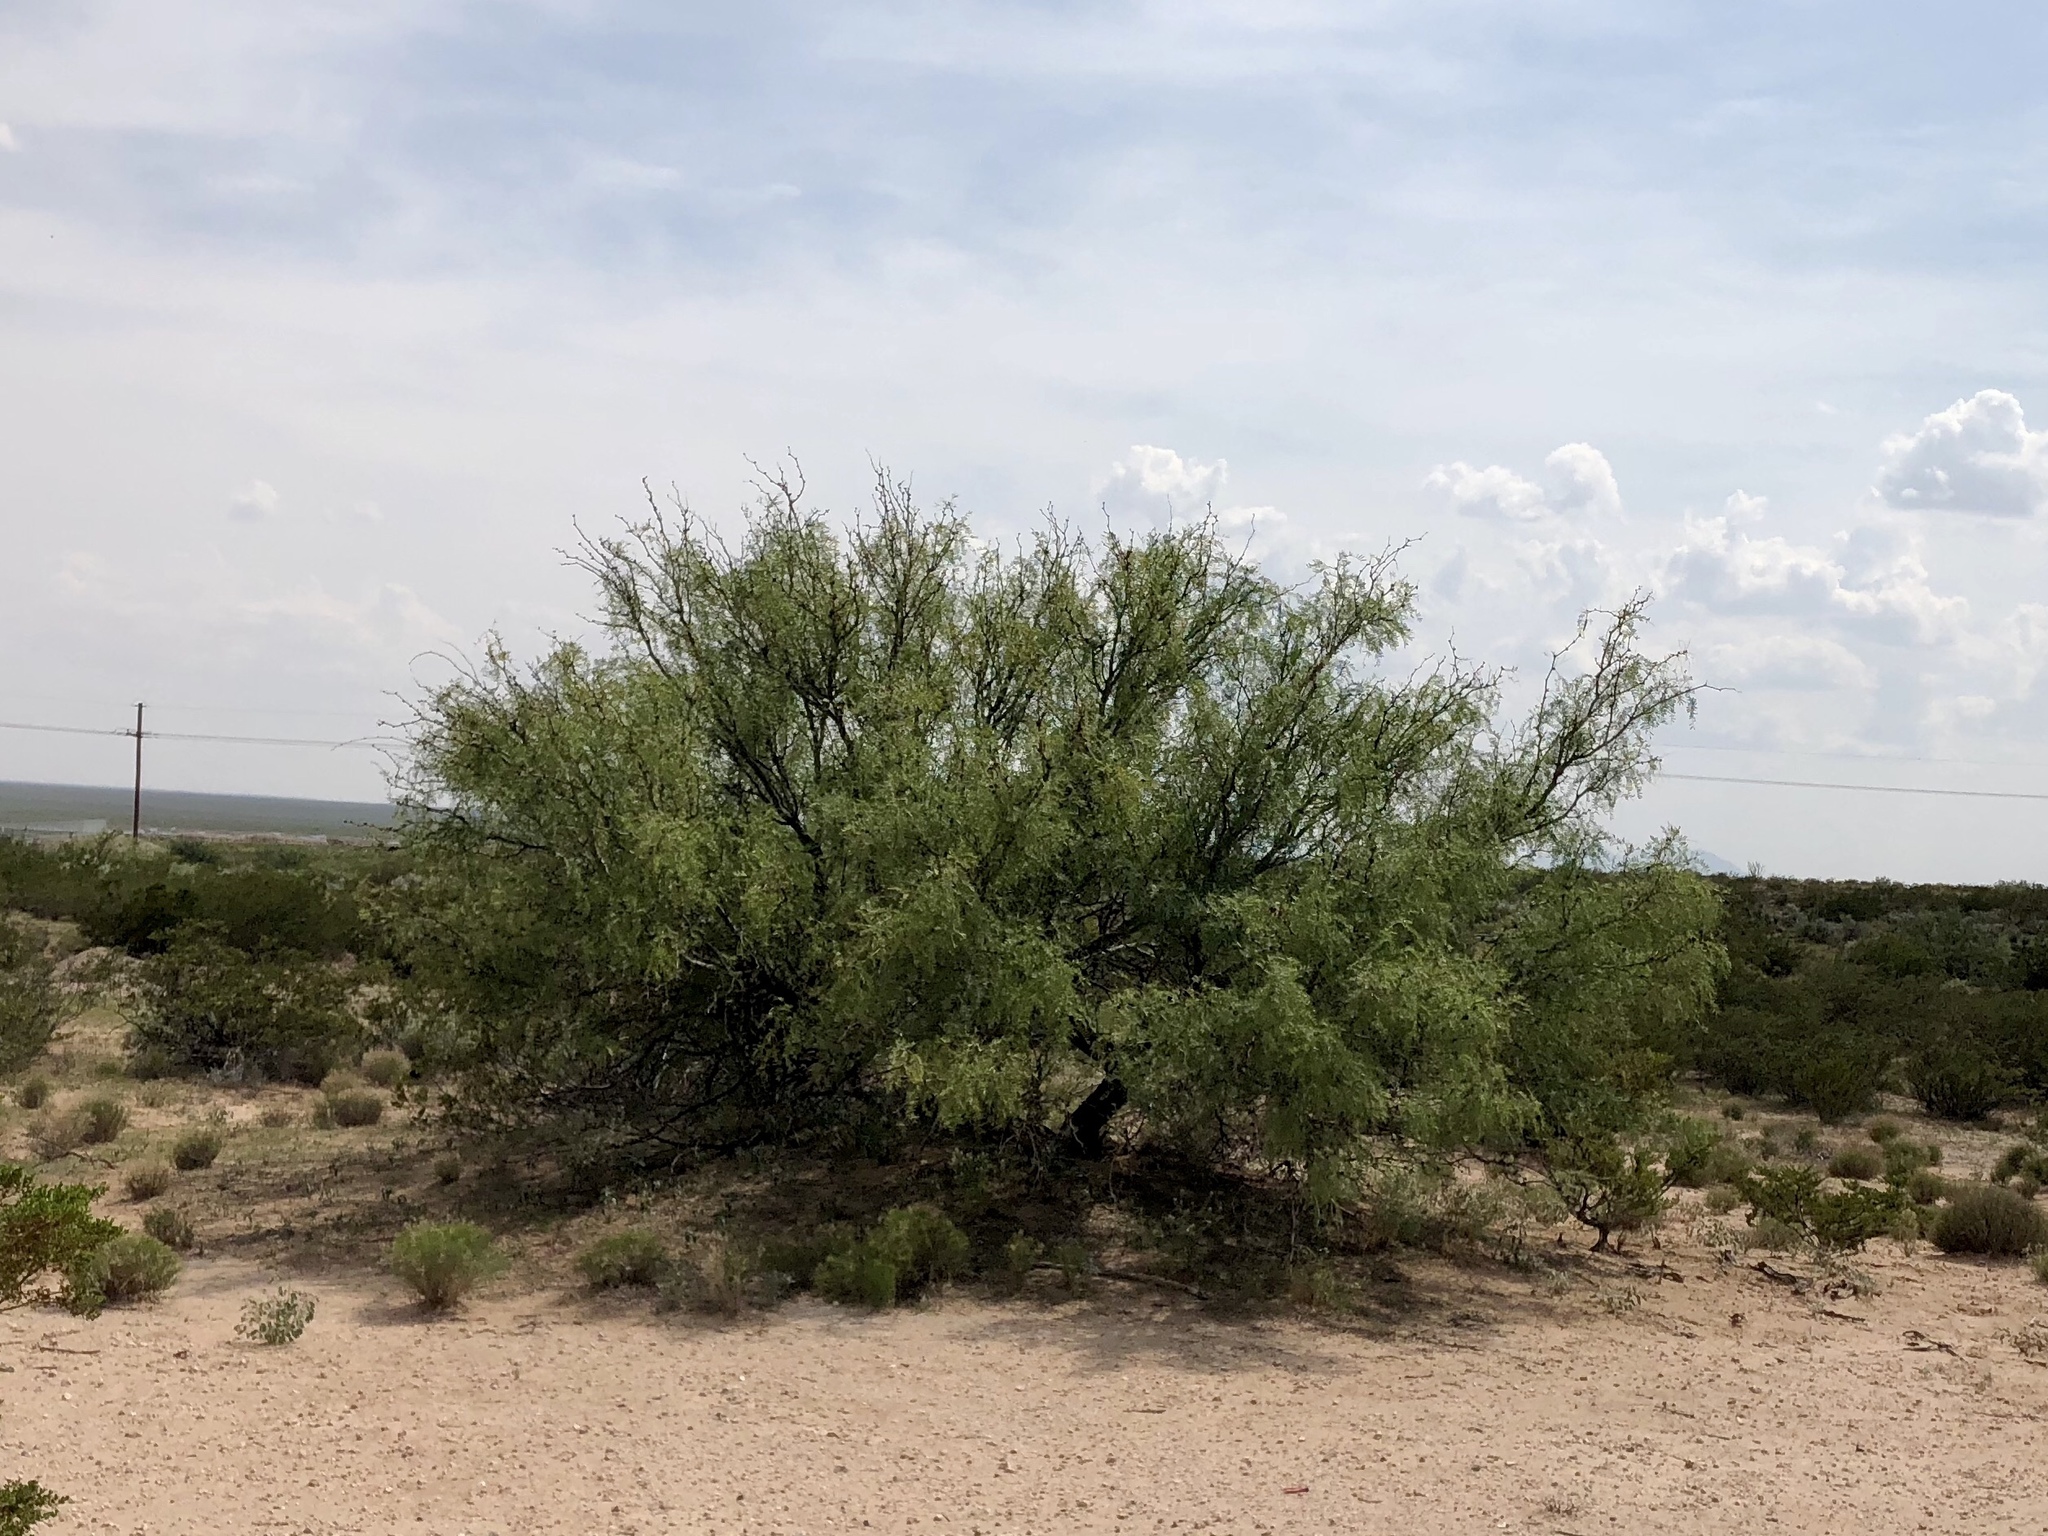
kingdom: Plantae
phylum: Tracheophyta
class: Magnoliopsida
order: Fabales
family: Fabaceae
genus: Prosopis
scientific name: Prosopis glandulosa
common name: Honey mesquite
